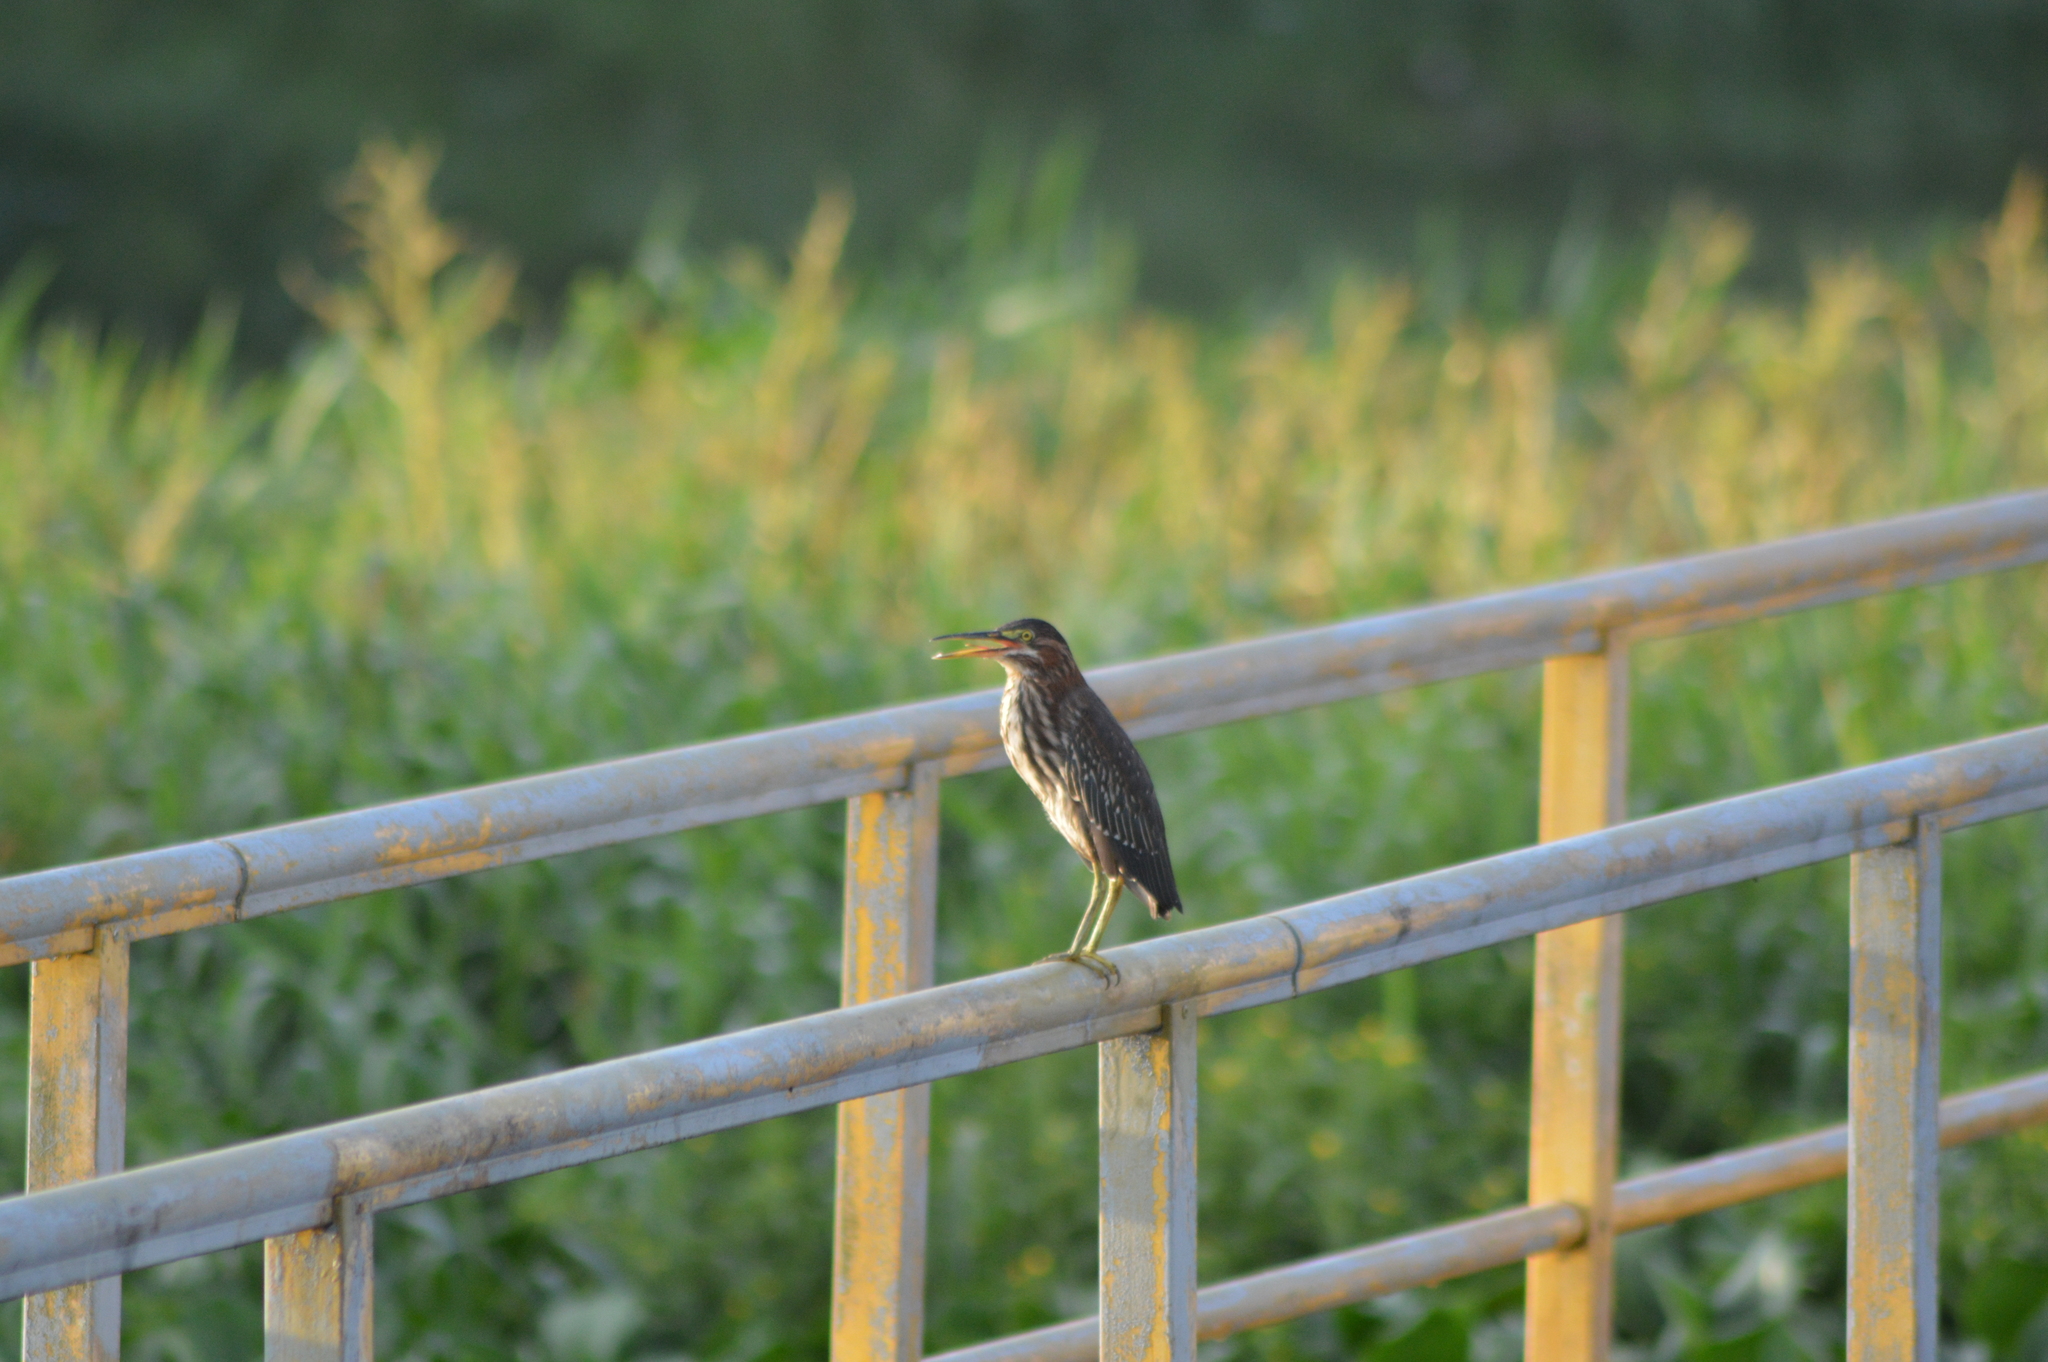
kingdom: Animalia
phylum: Chordata
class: Aves
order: Pelecaniformes
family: Ardeidae
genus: Butorides
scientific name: Butorides virescens
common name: Green heron
